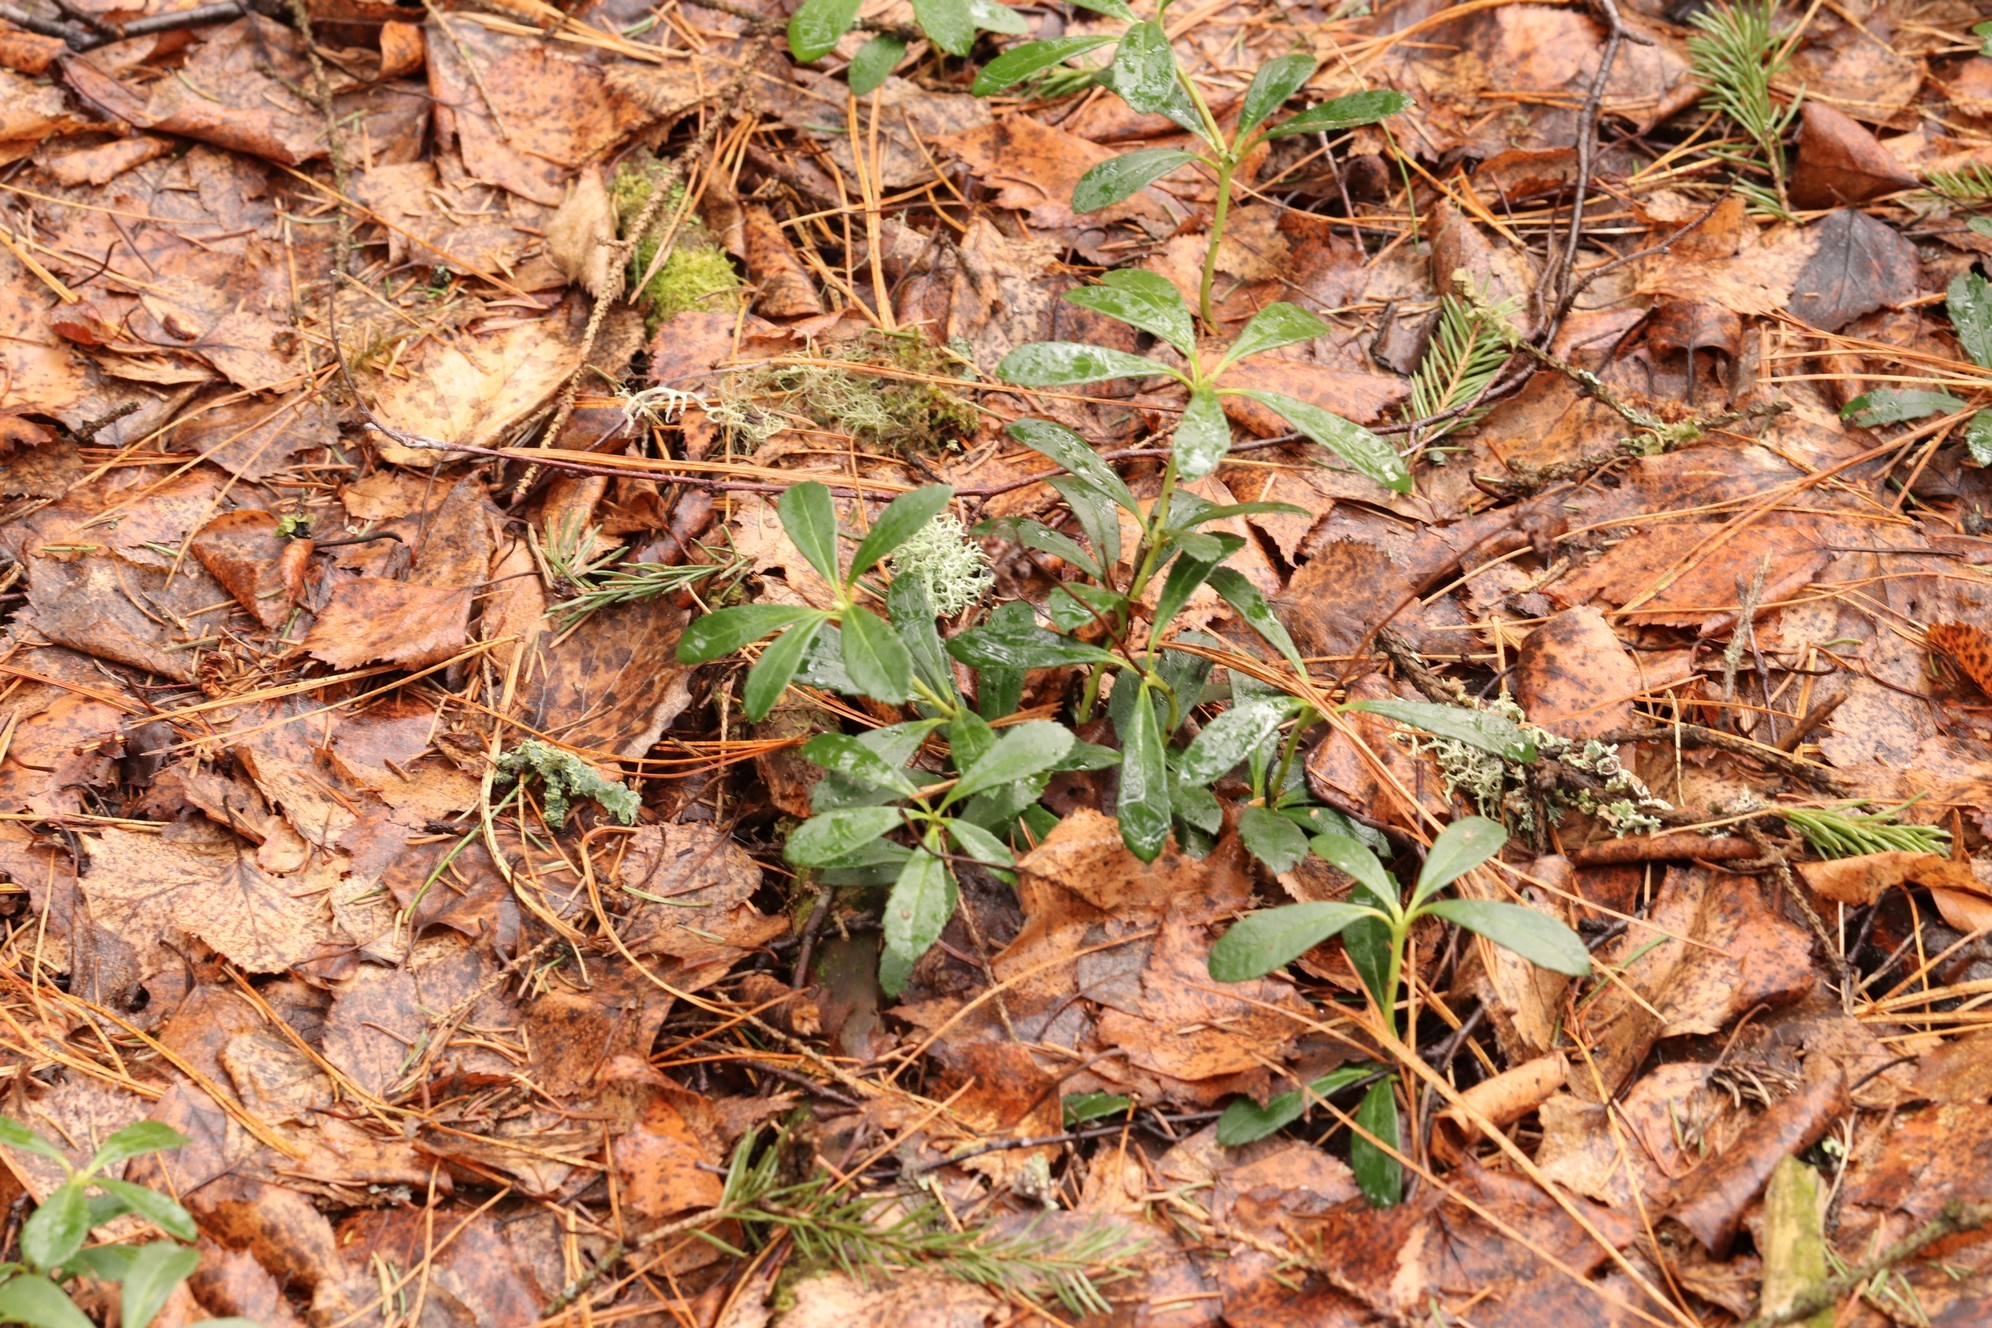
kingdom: Plantae
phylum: Tracheophyta
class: Magnoliopsida
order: Ericales
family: Ericaceae
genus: Chimaphila
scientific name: Chimaphila umbellata
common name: Pipsissewa
